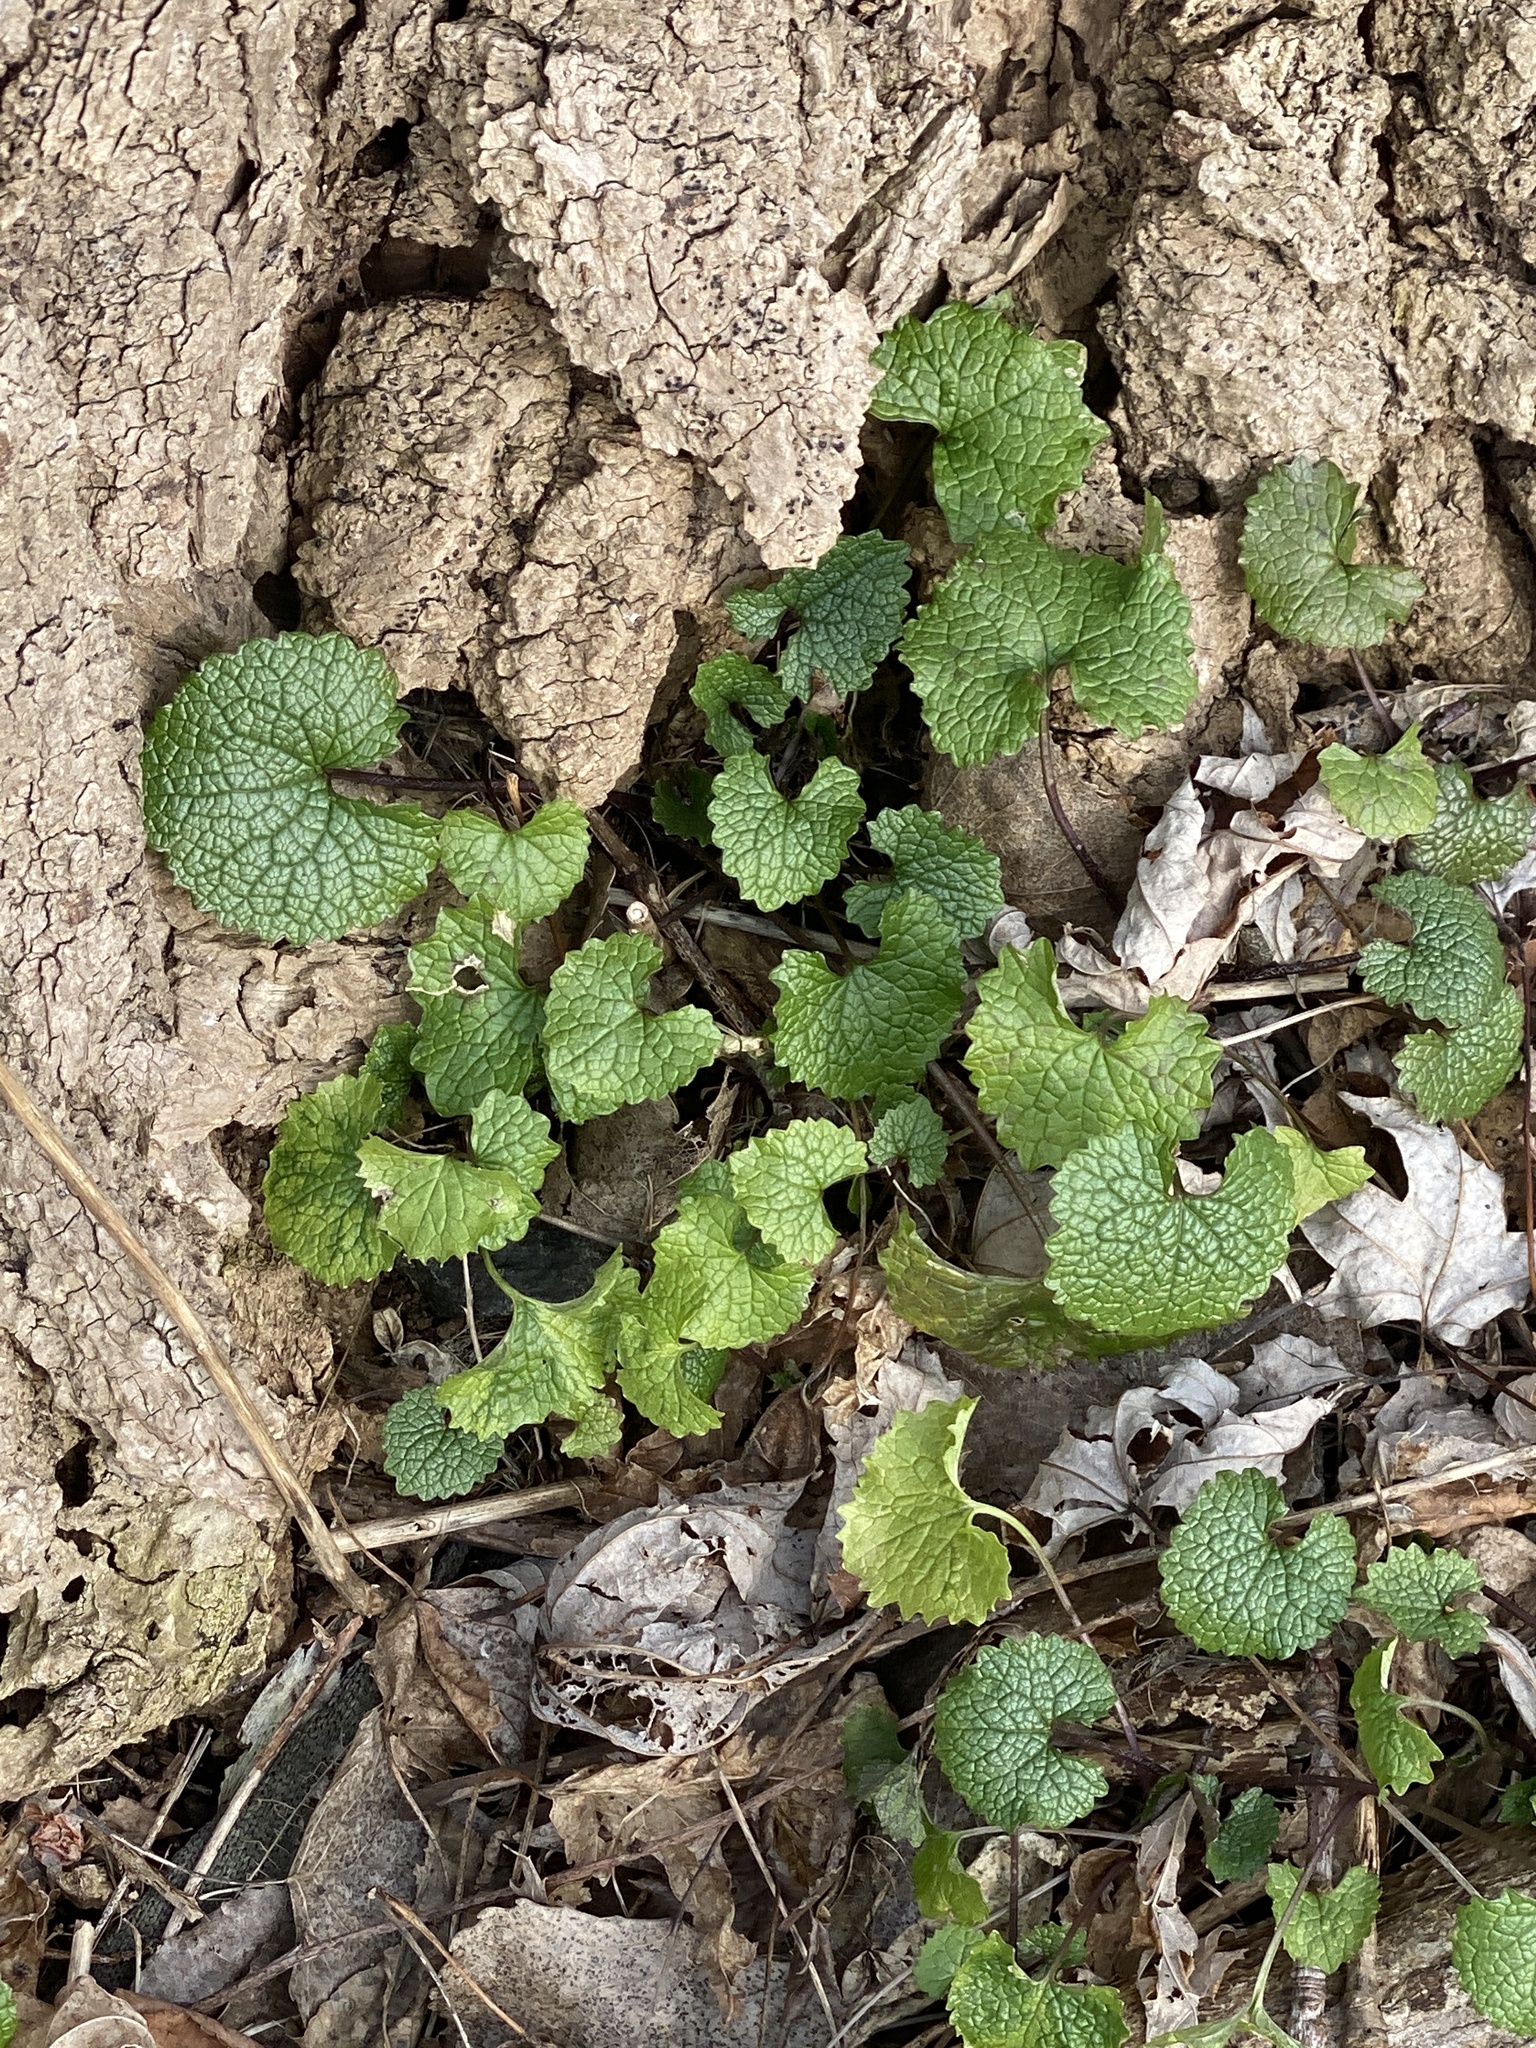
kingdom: Plantae
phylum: Tracheophyta
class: Magnoliopsida
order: Brassicales
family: Brassicaceae
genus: Alliaria
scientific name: Alliaria petiolata
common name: Garlic mustard
